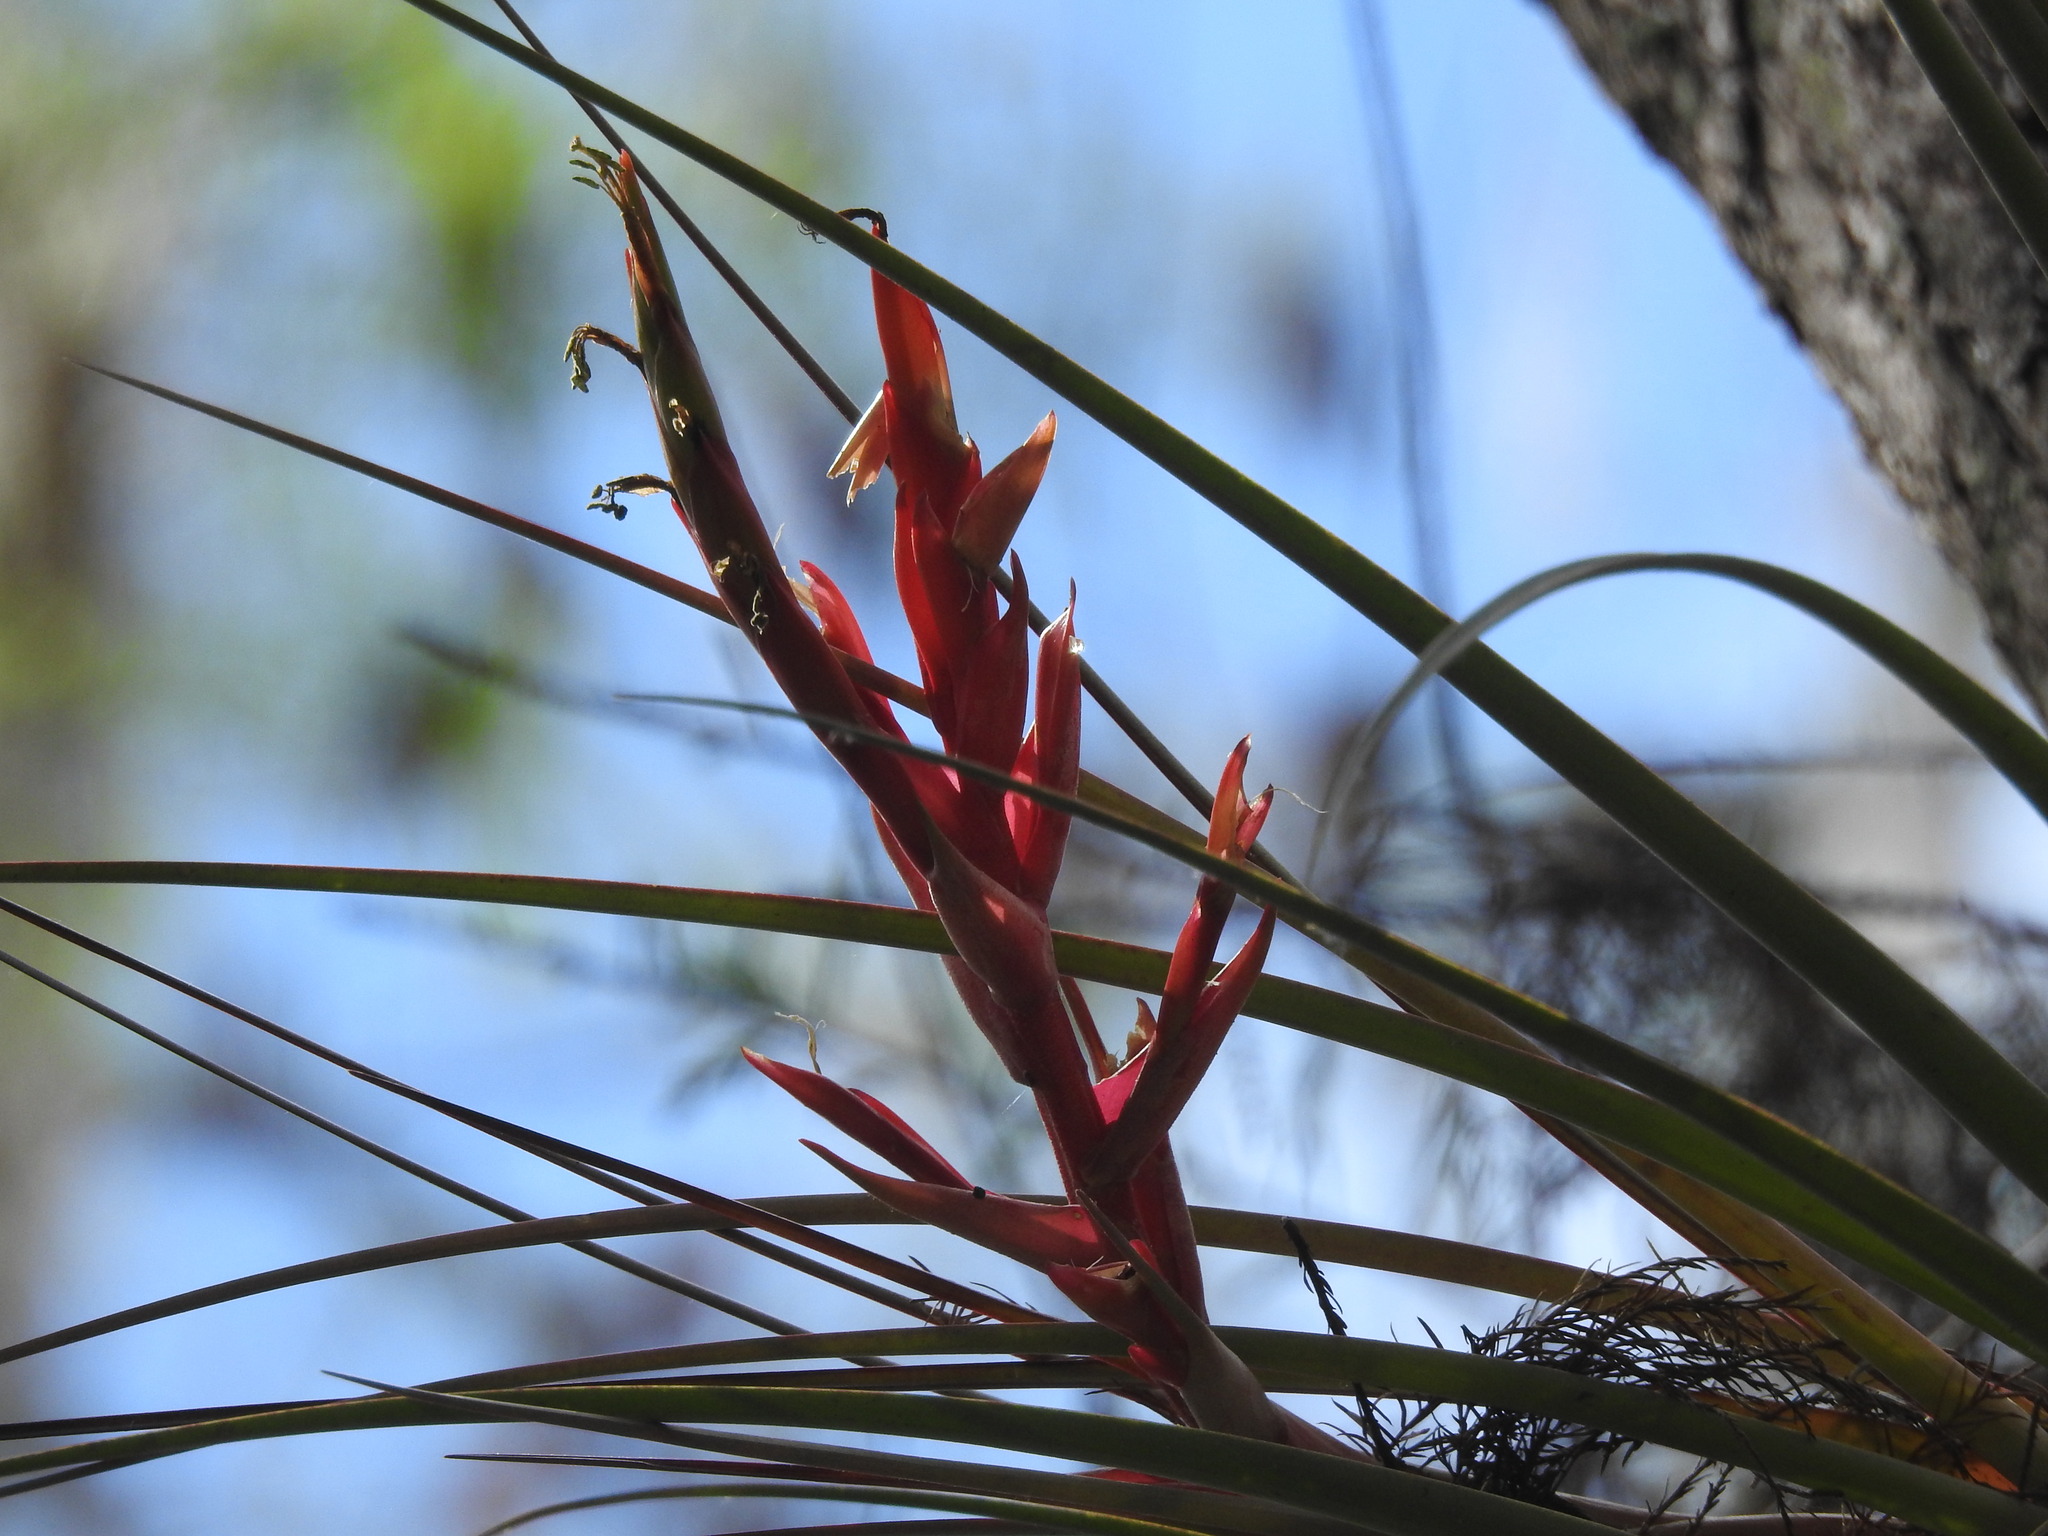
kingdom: Plantae
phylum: Tracheophyta
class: Liliopsida
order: Poales
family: Bromeliaceae
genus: Tillandsia
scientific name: Tillandsia fasciculata
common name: Giant airplant
